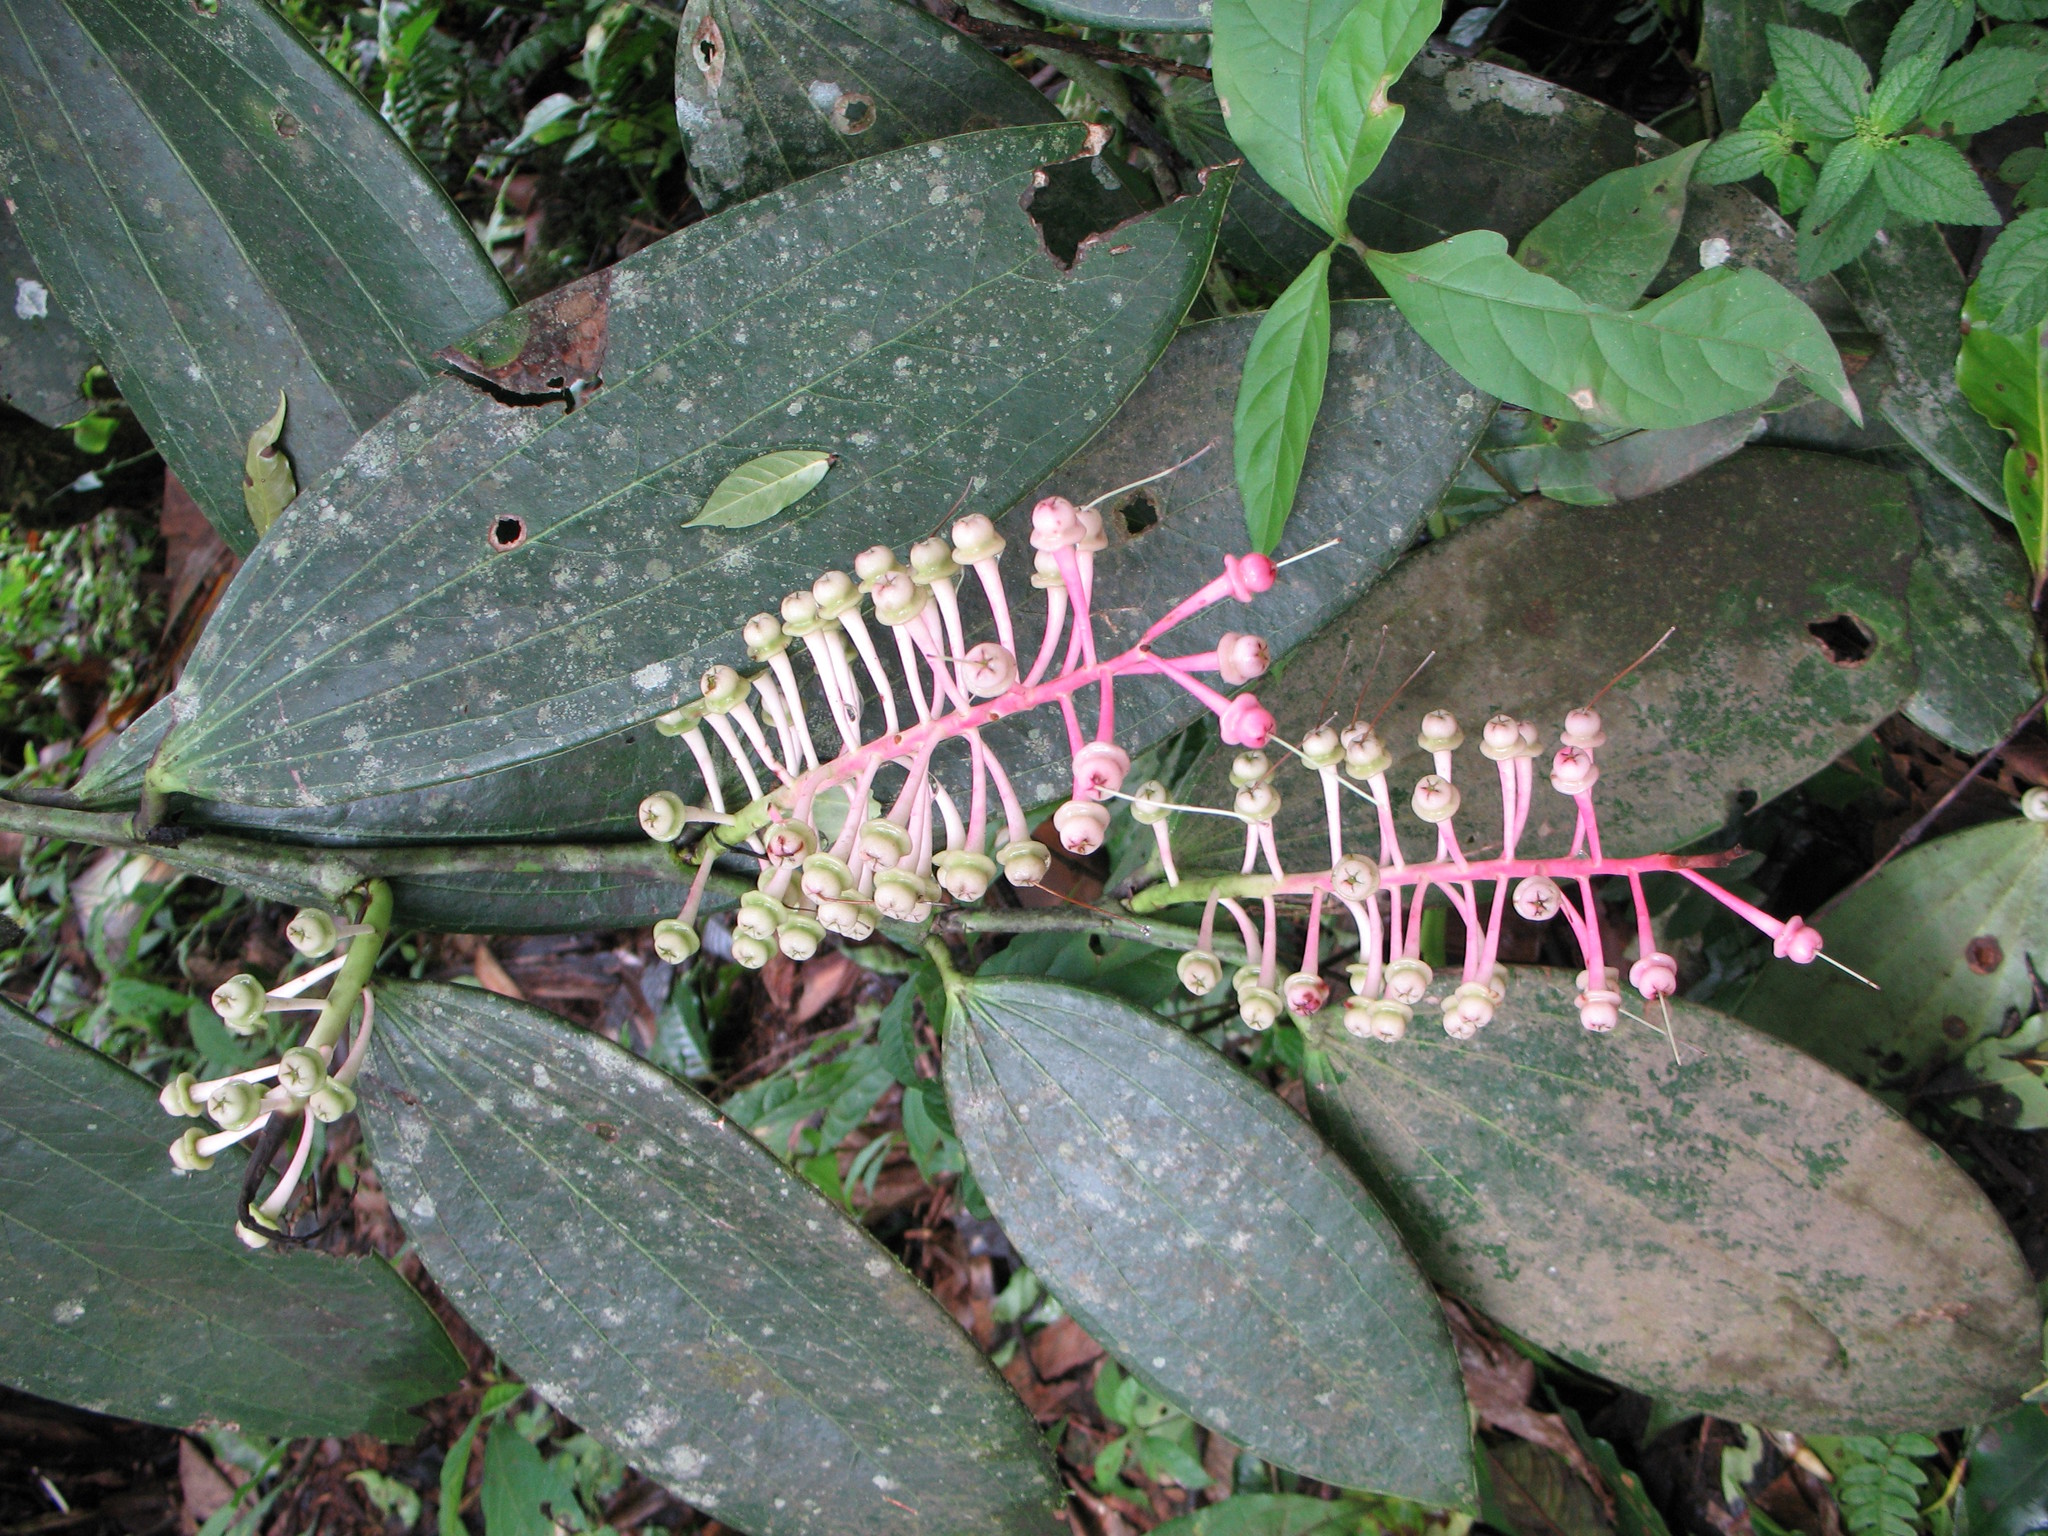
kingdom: Plantae
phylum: Tracheophyta
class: Magnoliopsida
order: Ericales
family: Ericaceae
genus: Cavendishia
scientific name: Cavendishia grandifolia
